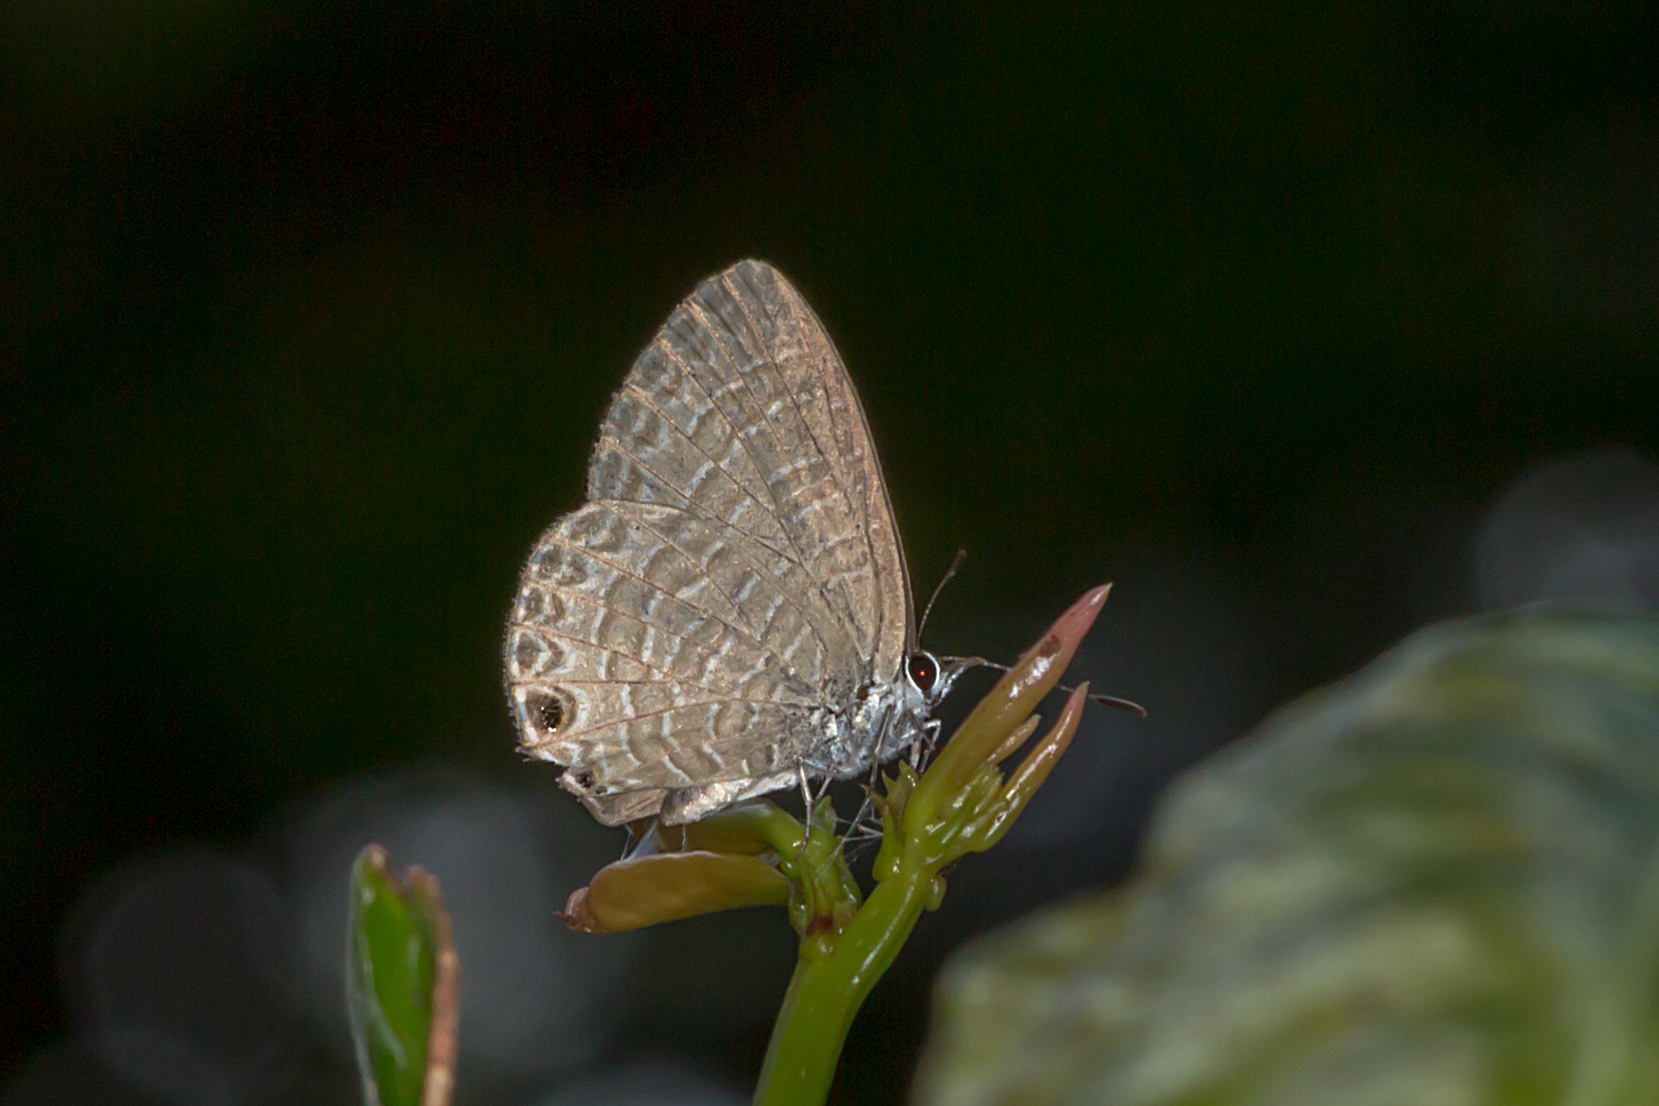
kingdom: Animalia
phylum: Arthropoda
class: Insecta
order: Lepidoptera
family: Lycaenidae
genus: Nacaduba
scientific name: Nacaduba berenice
